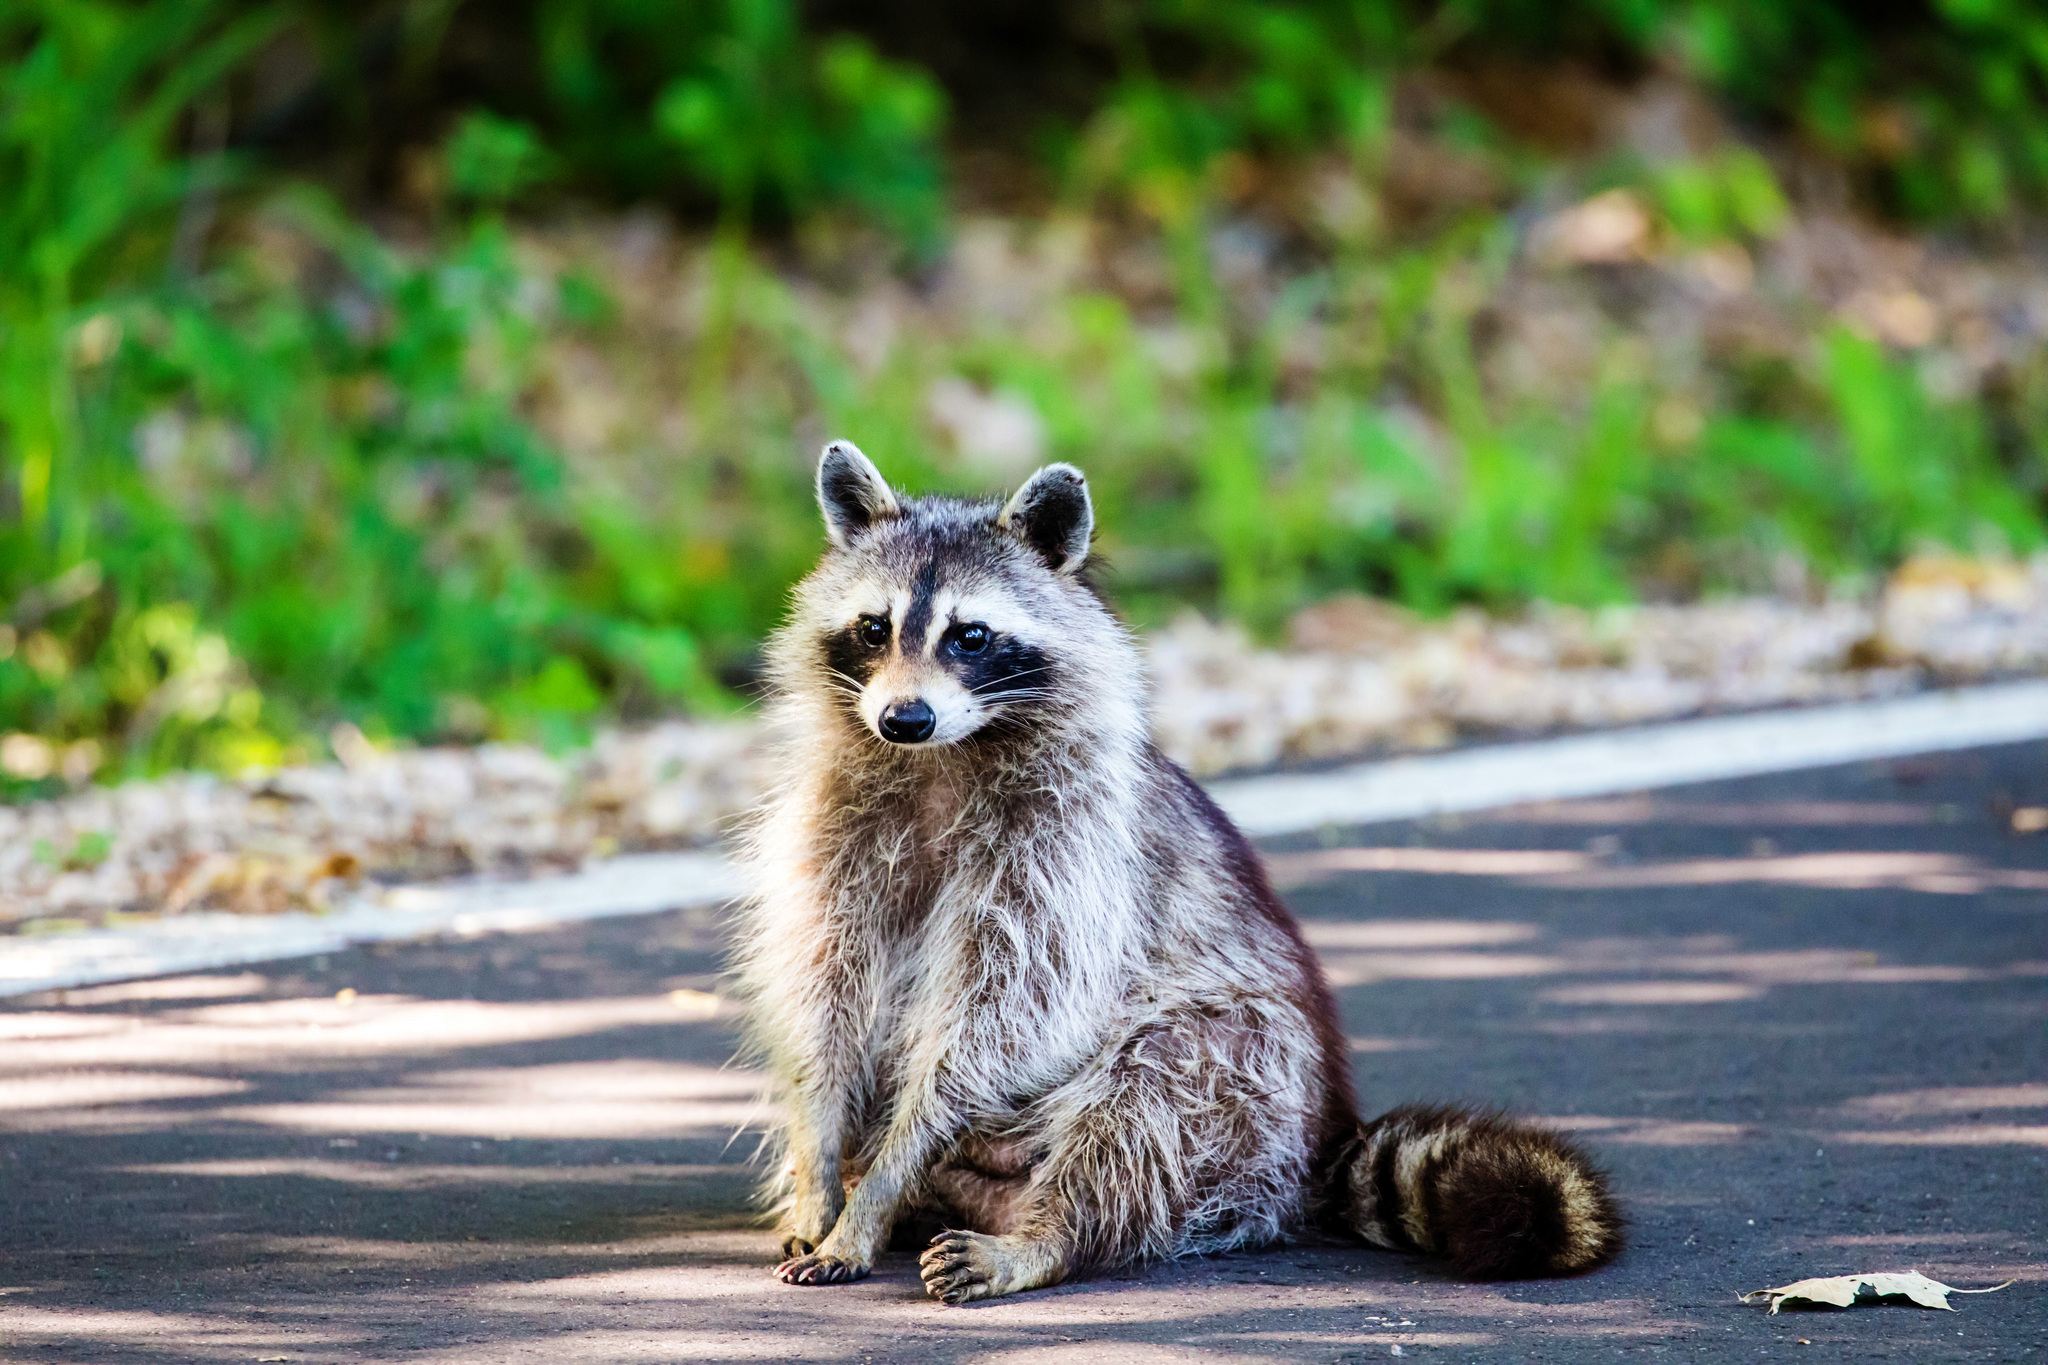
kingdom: Animalia
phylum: Chordata
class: Mammalia
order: Carnivora
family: Procyonidae
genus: Procyon
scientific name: Procyon lotor
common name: Raccoon
